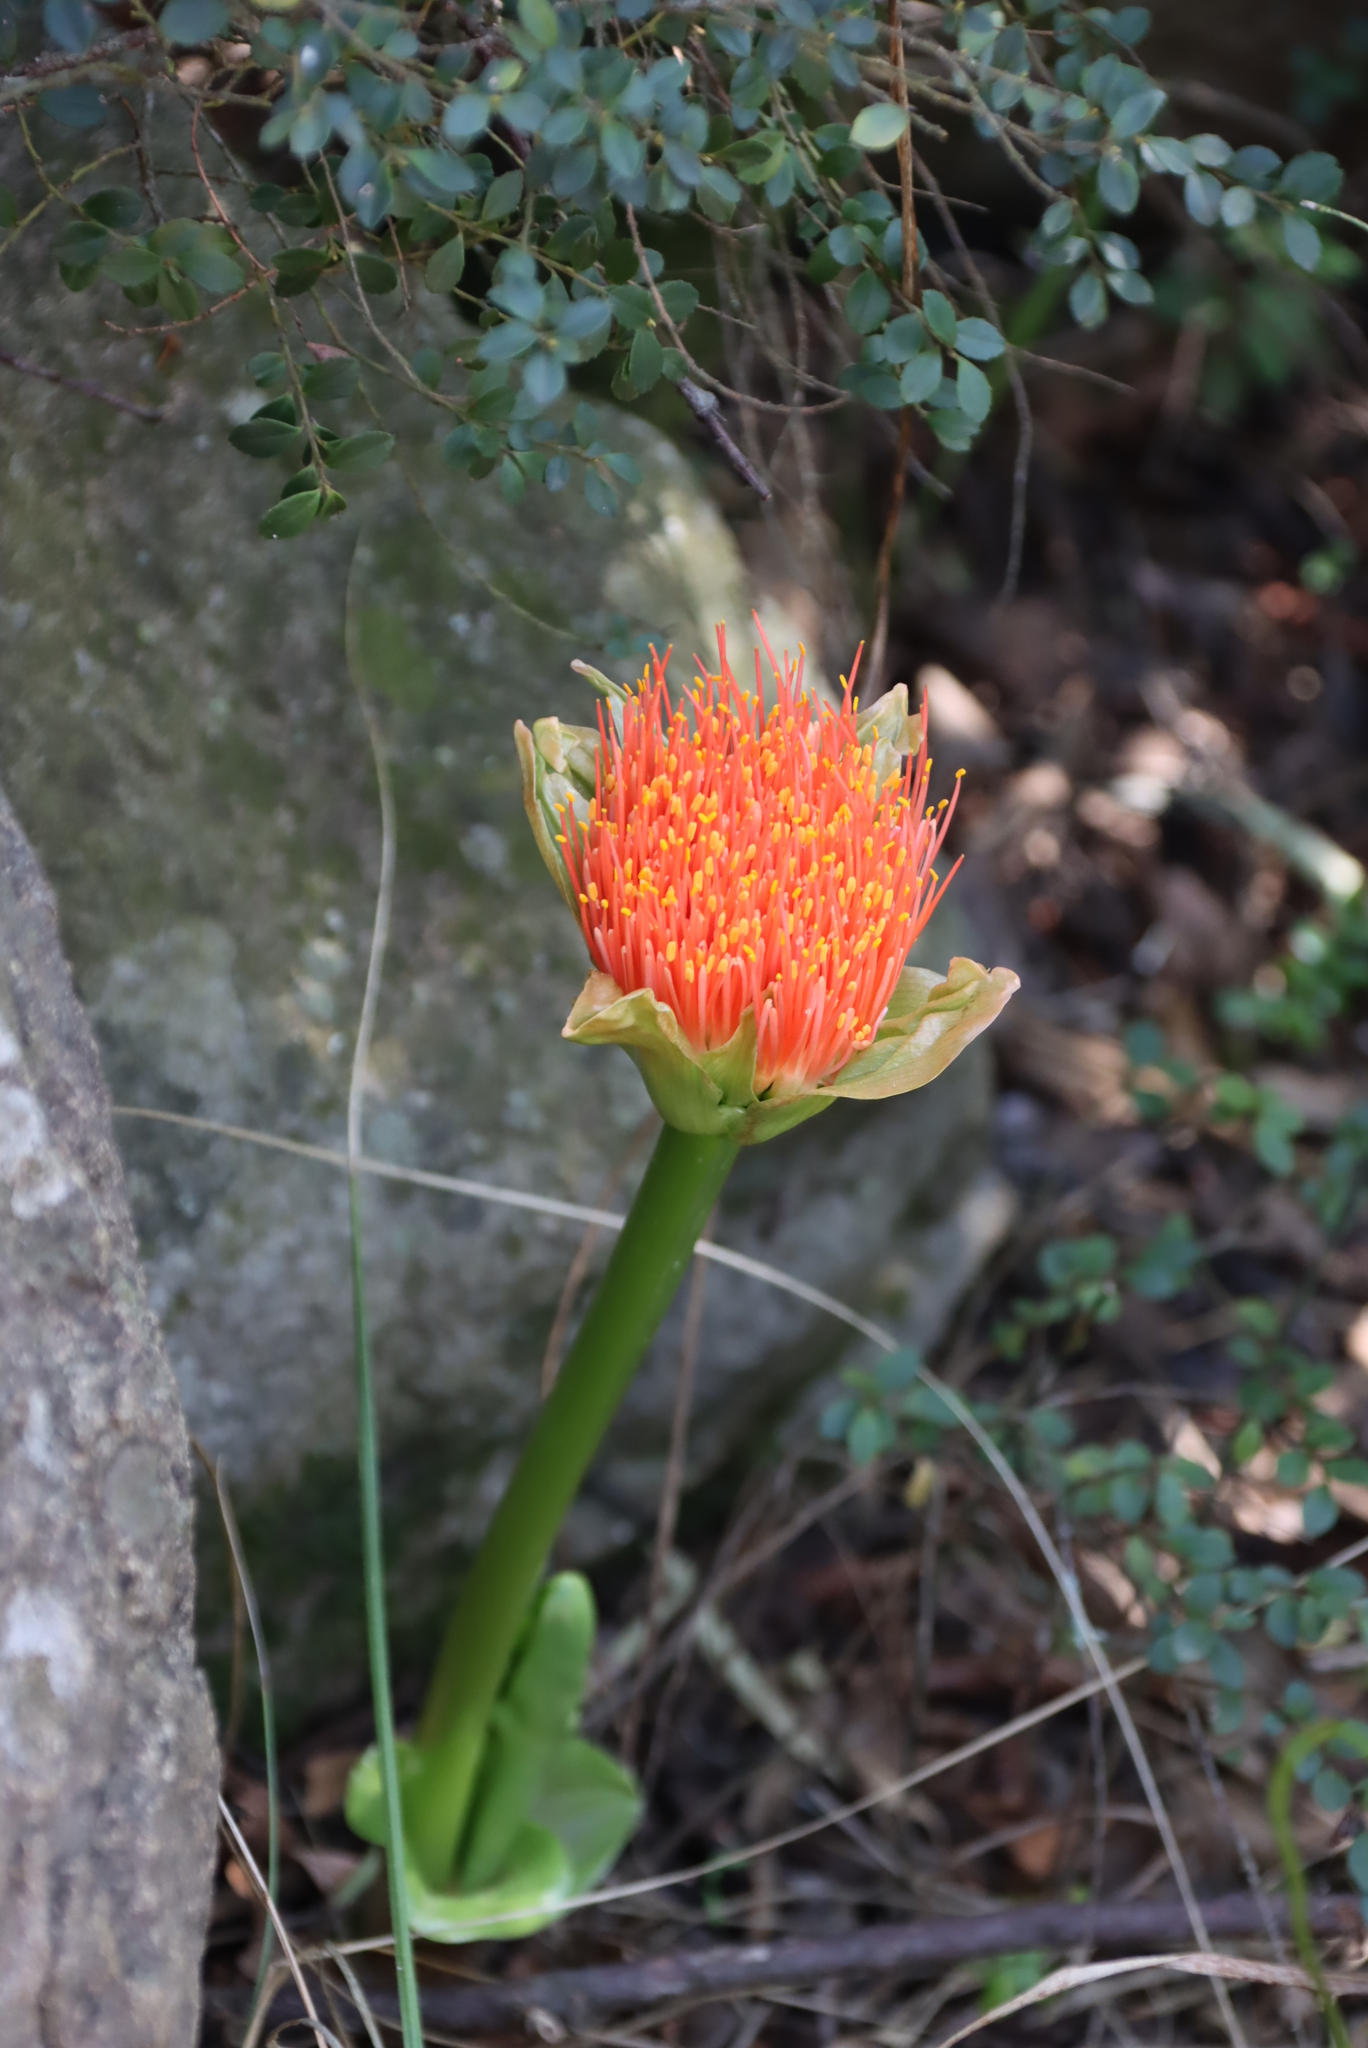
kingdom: Plantae
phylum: Tracheophyta
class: Liliopsida
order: Asparagales
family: Amaryllidaceae
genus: Scadoxus
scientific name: Scadoxus puniceus
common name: Royal-paintbrush
